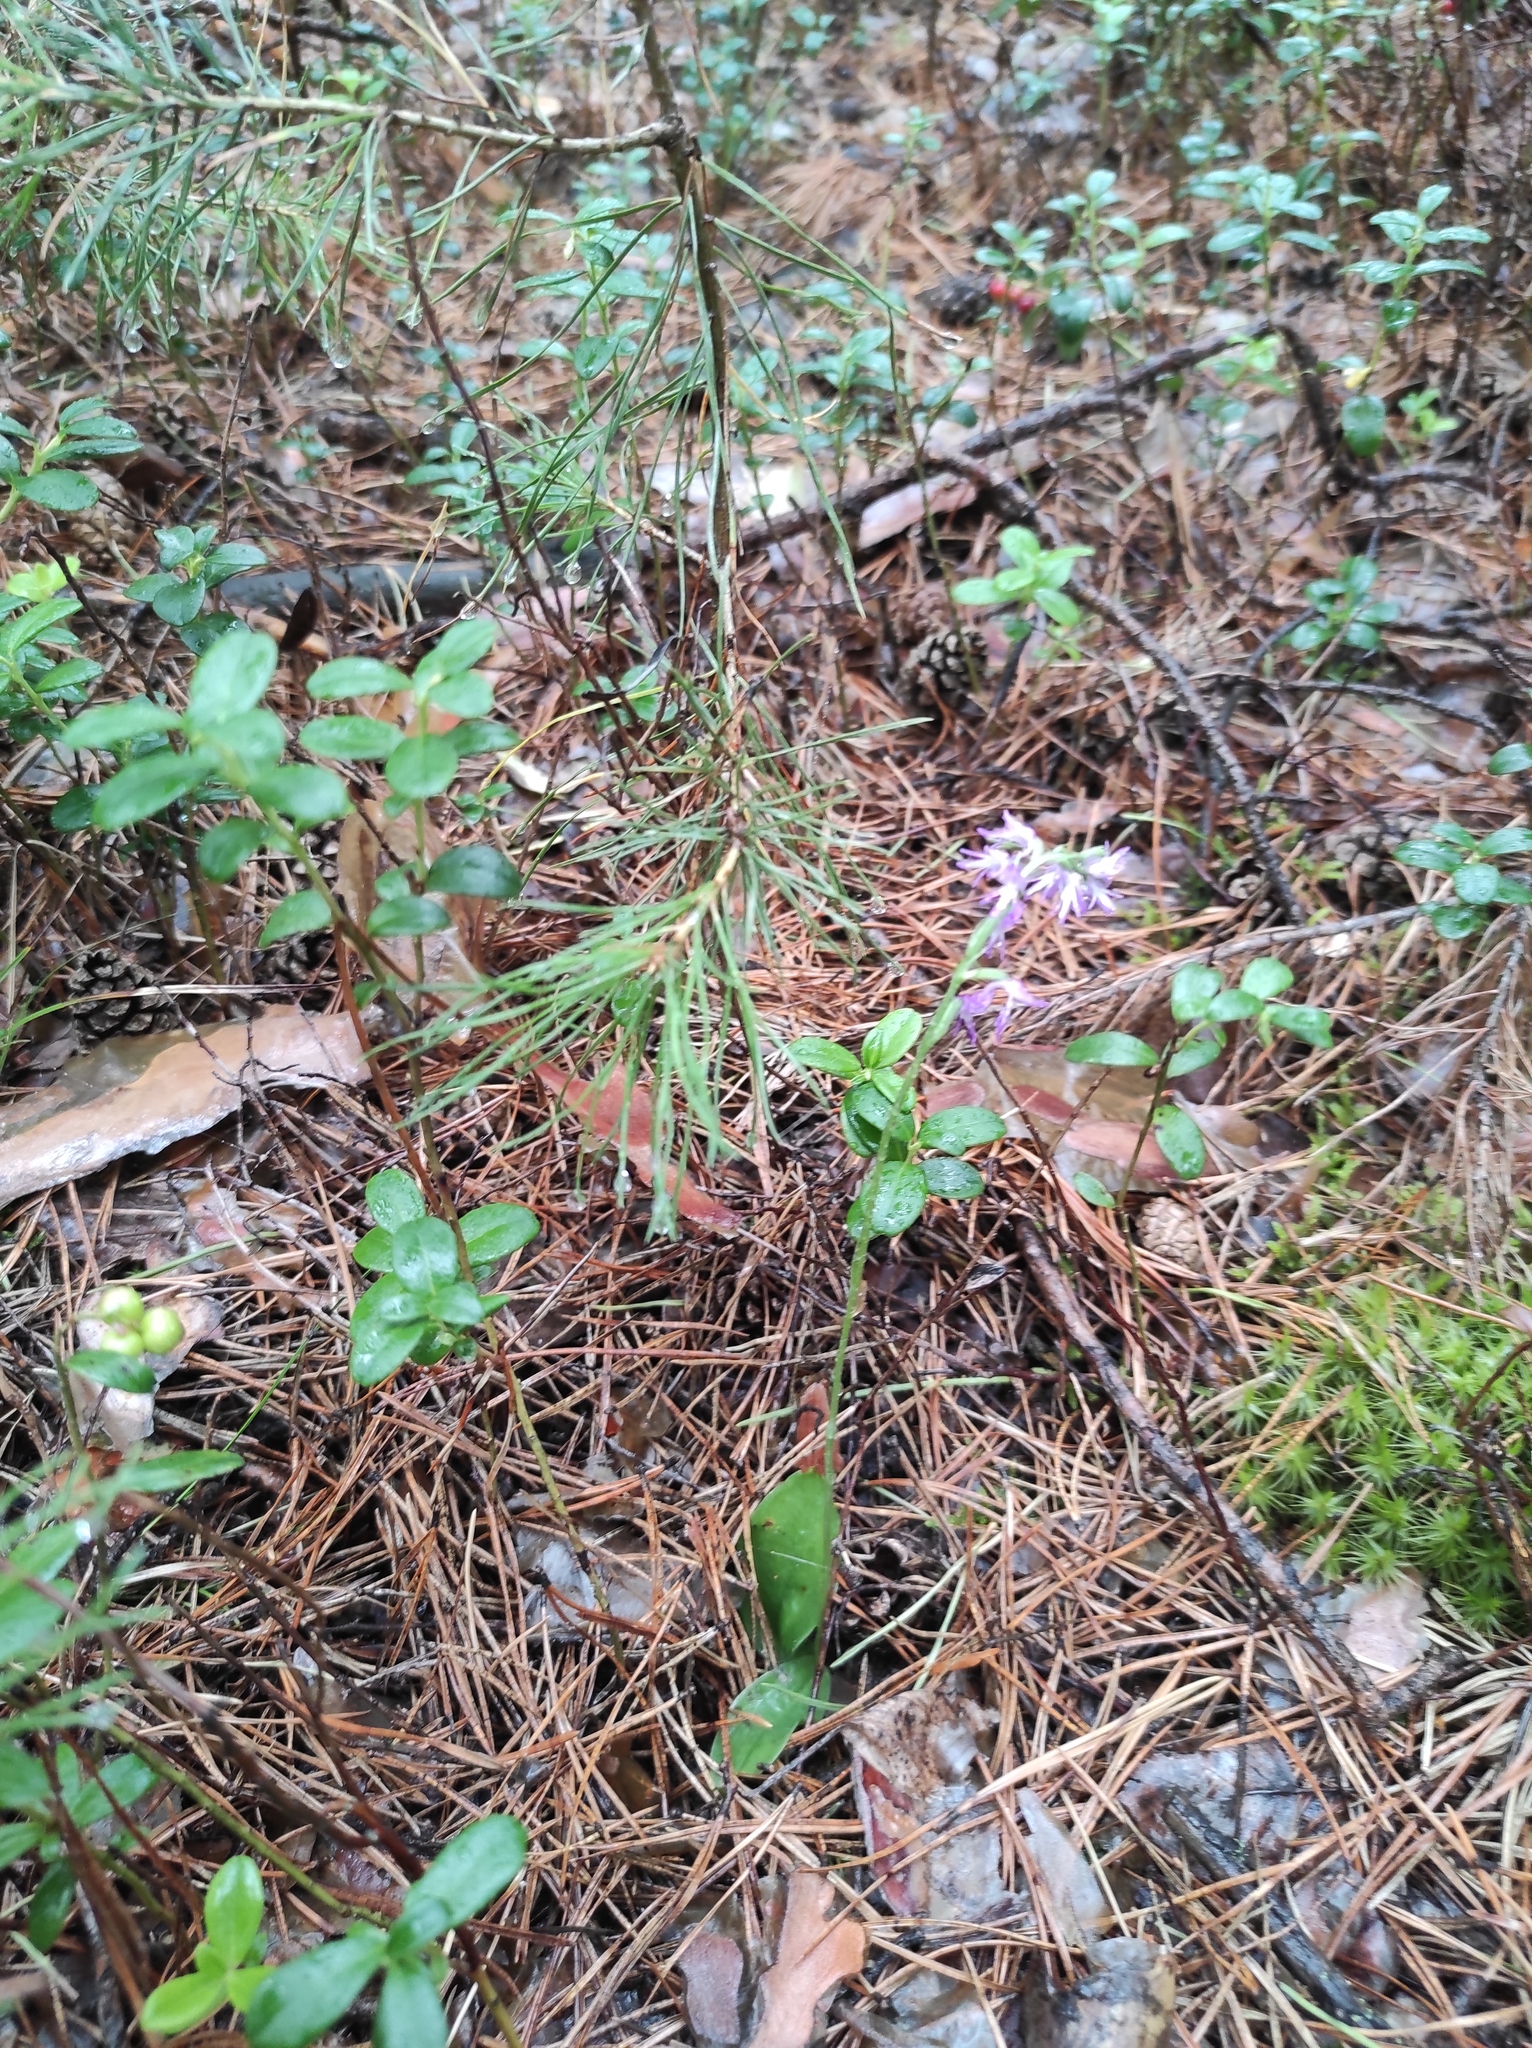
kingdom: Plantae
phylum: Tracheophyta
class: Liliopsida
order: Asparagales
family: Orchidaceae
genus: Hemipilia
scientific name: Hemipilia cucullata
